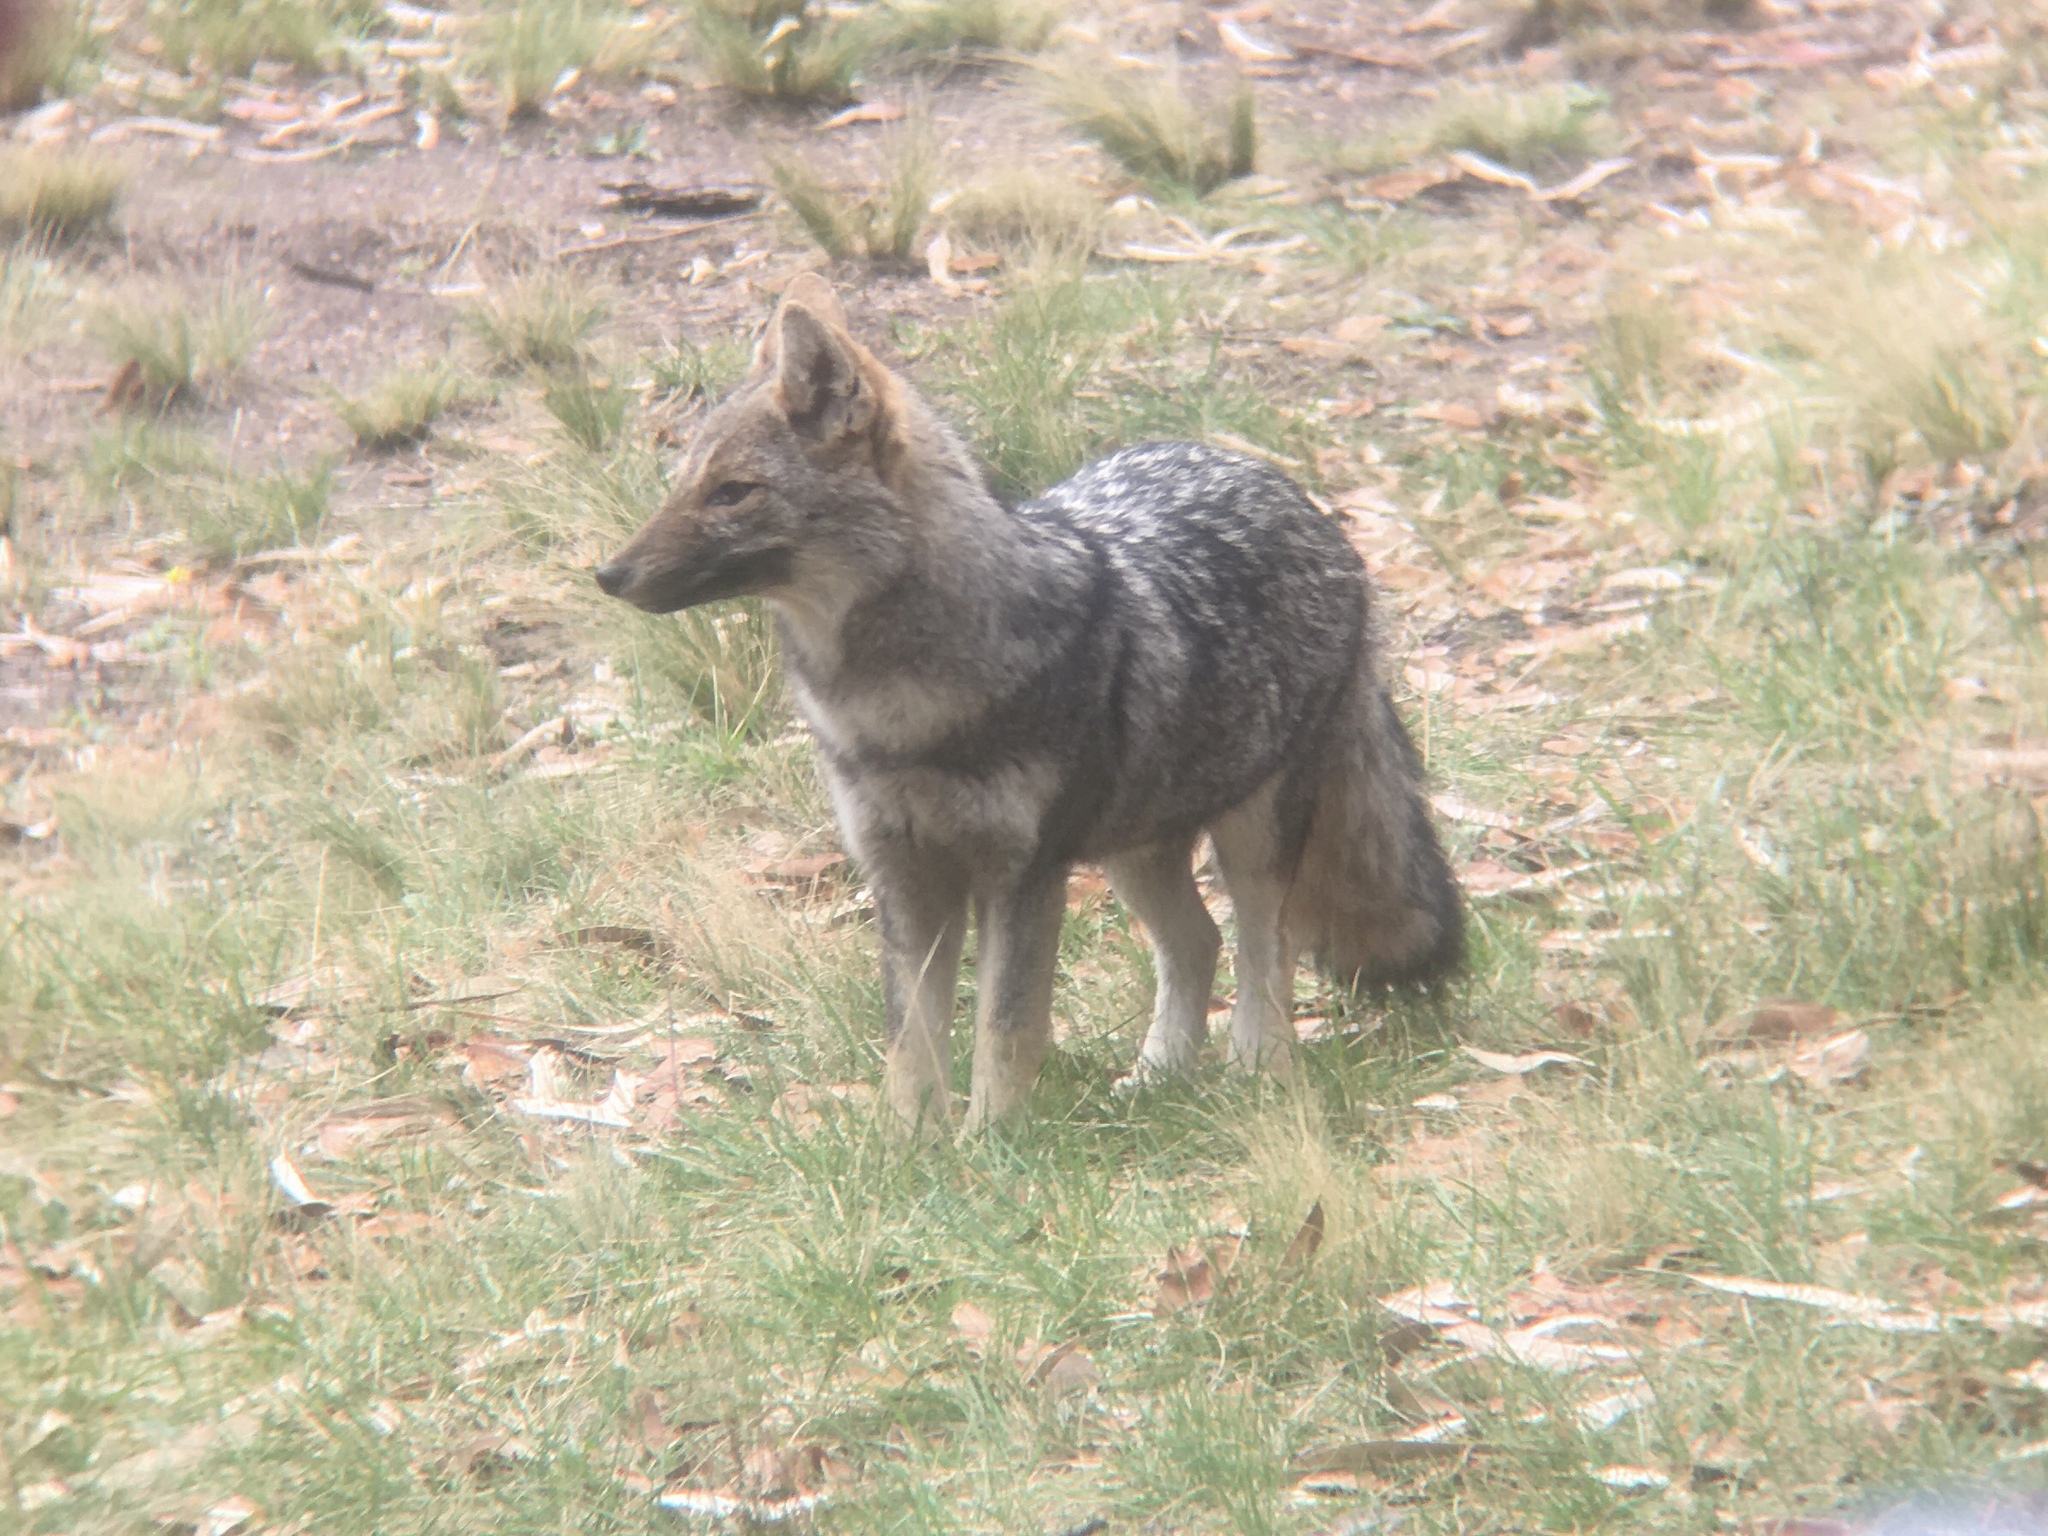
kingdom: Animalia
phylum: Chordata
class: Mammalia
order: Carnivora
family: Canidae
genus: Lycalopex
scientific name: Lycalopex gymnocercus
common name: Pampas fox
